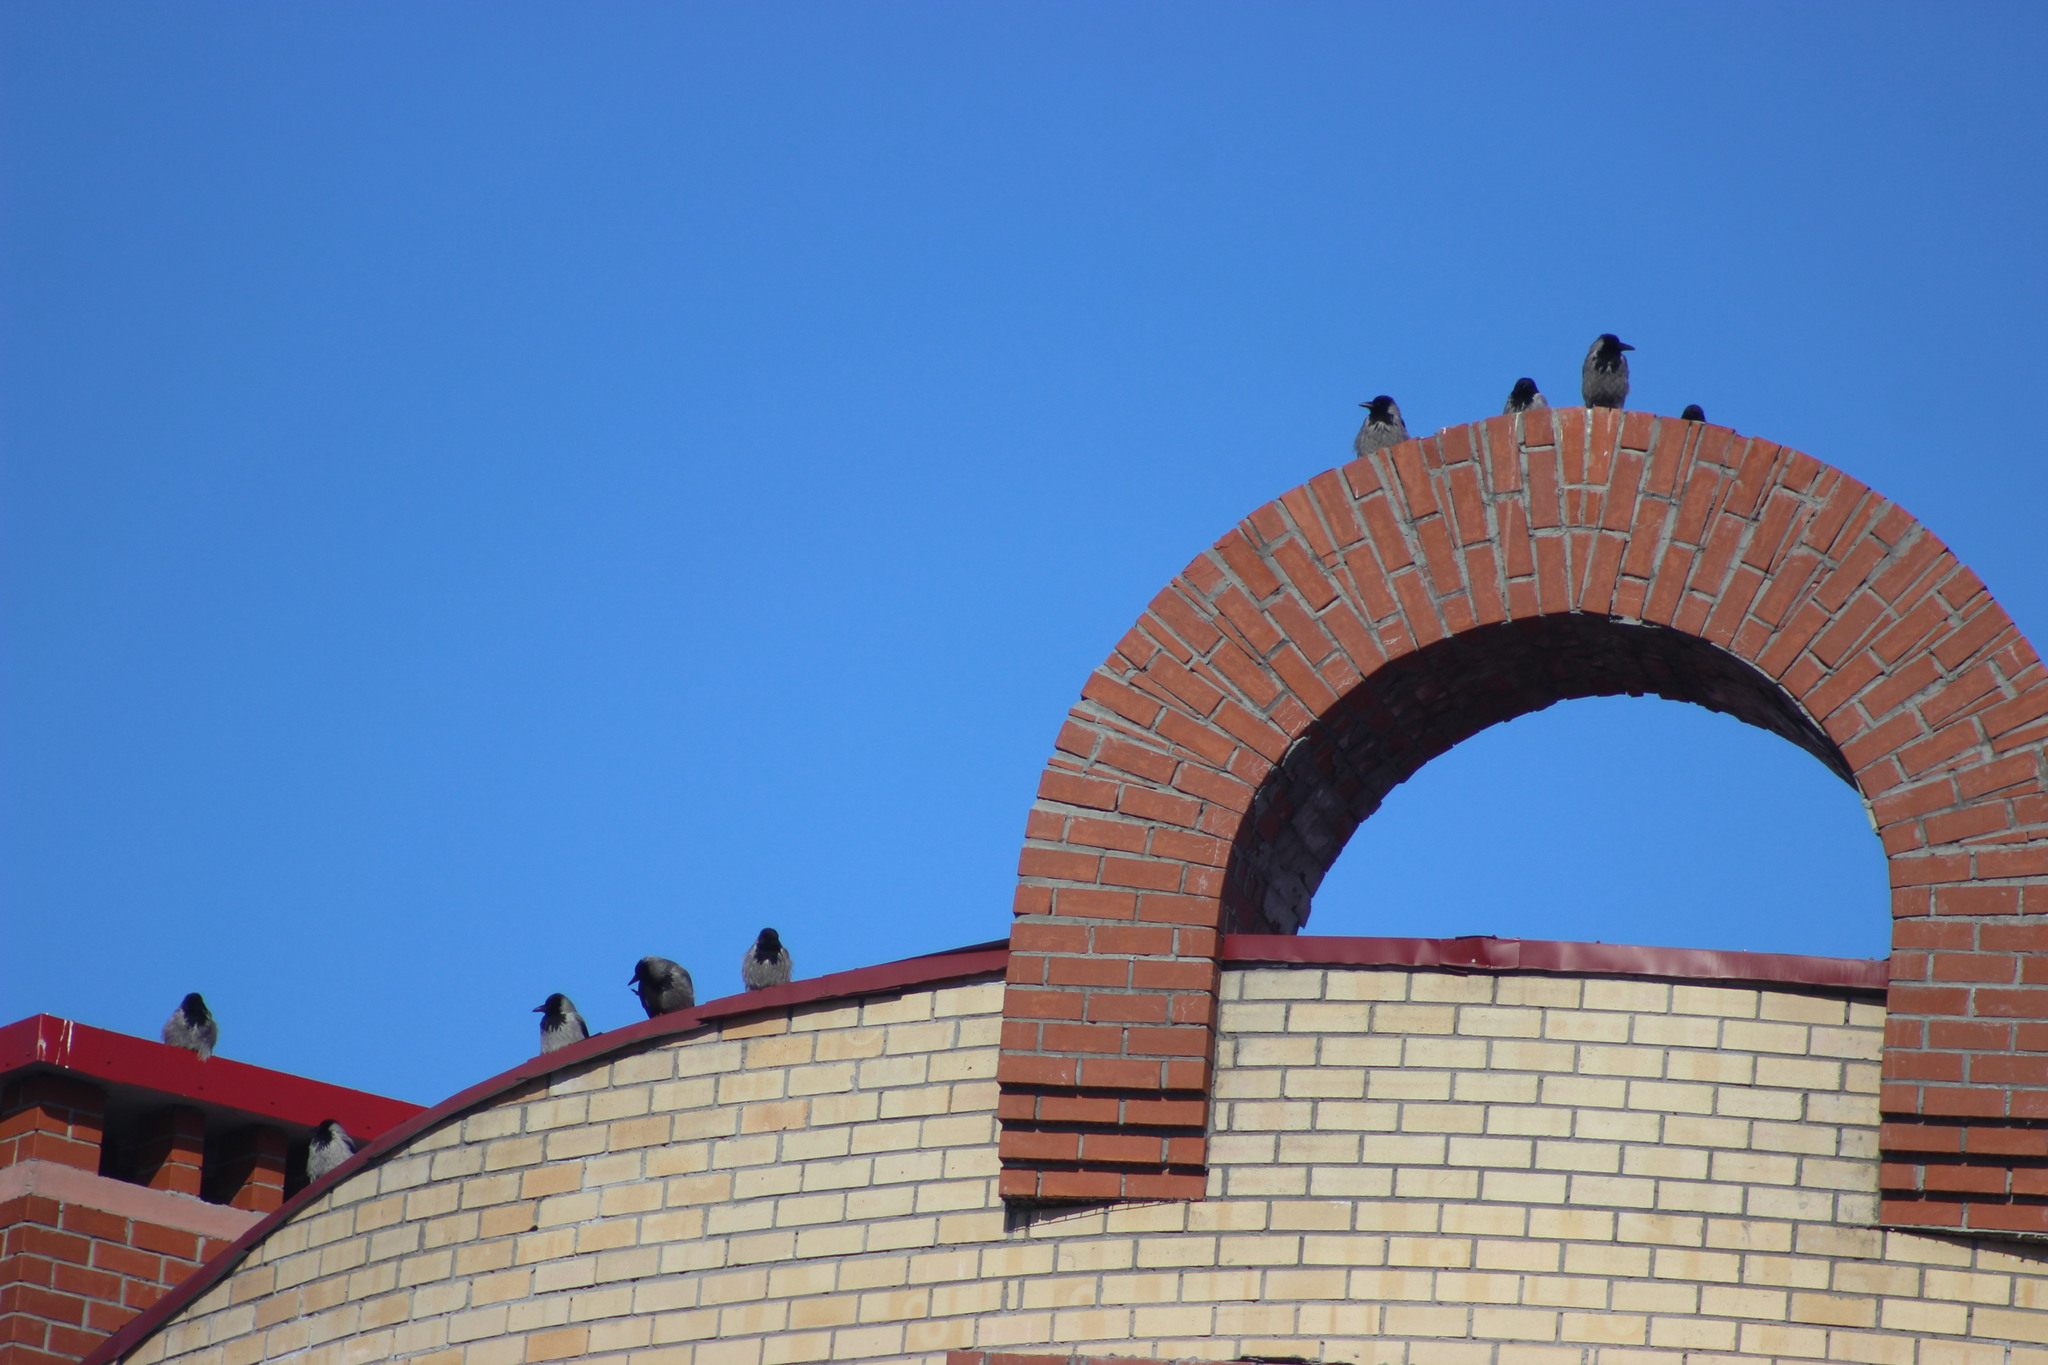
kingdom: Animalia
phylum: Chordata
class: Aves
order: Passeriformes
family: Corvidae
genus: Corvus
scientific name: Corvus cornix
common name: Hooded crow
